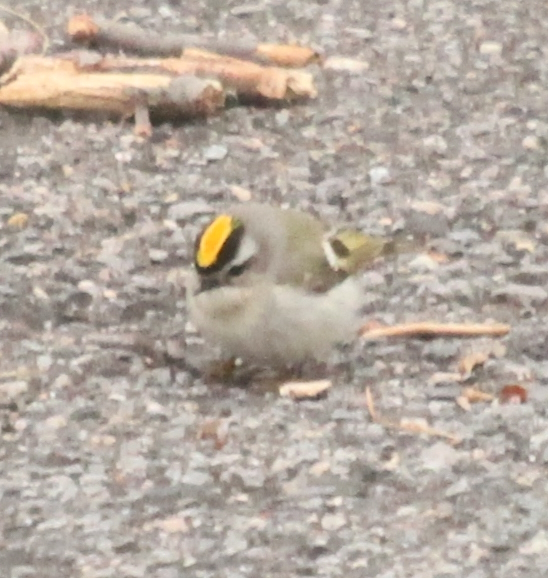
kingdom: Animalia
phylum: Chordata
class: Aves
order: Passeriformes
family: Regulidae
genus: Regulus
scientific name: Regulus satrapa
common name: Golden-crowned kinglet
